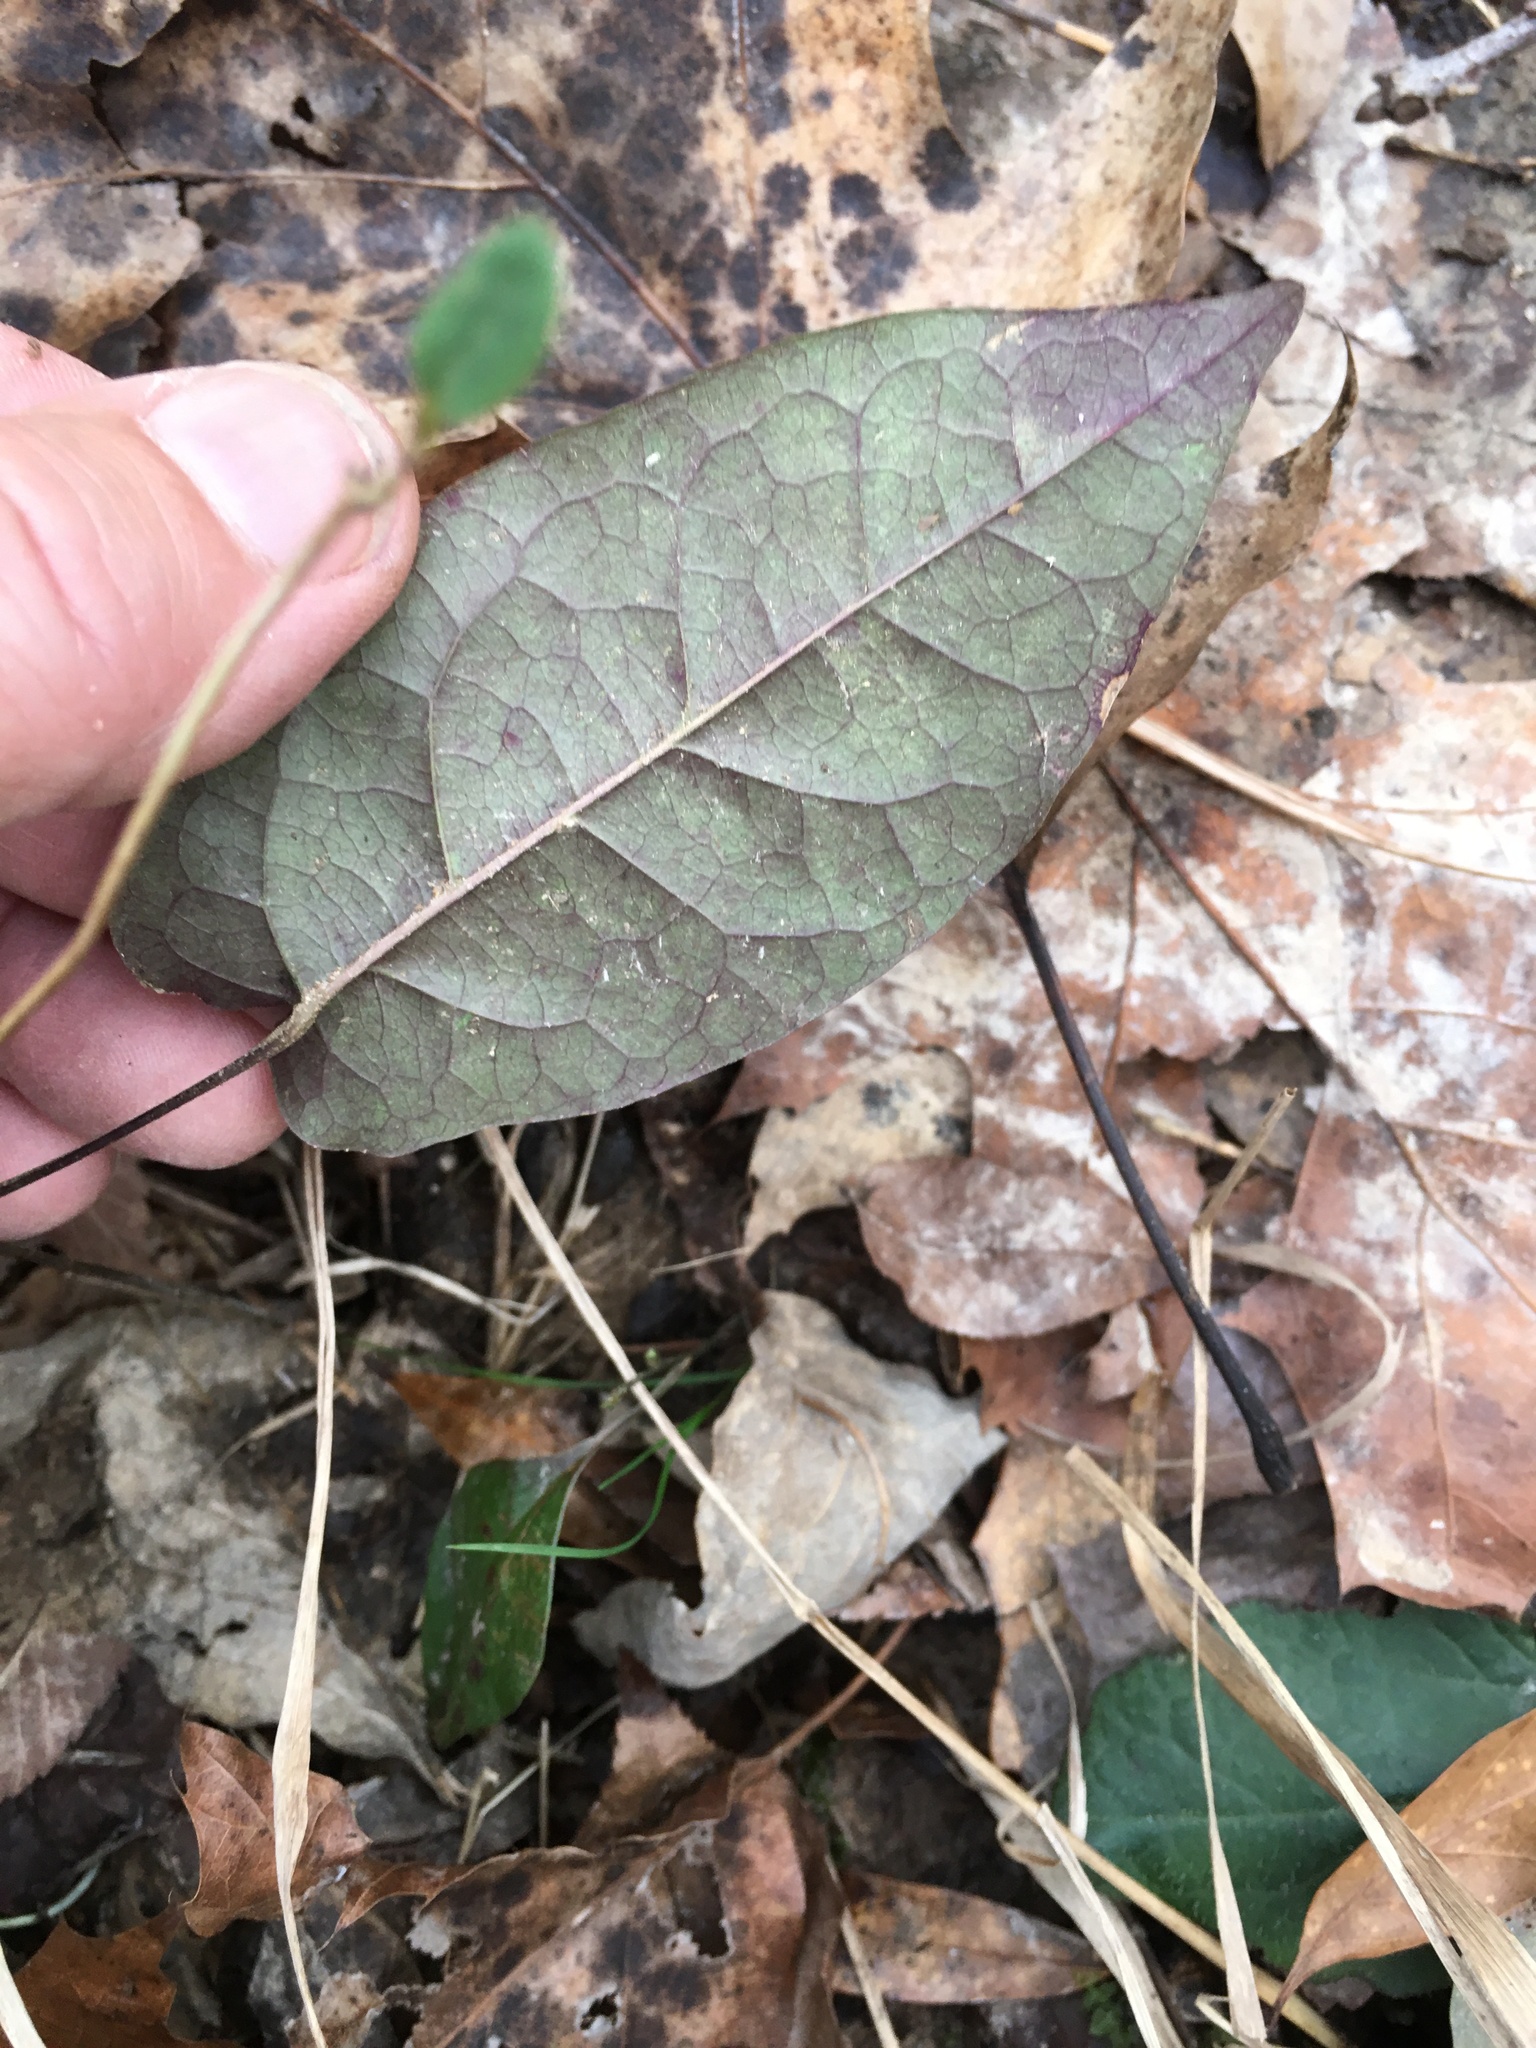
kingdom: Plantae
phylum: Tracheophyta
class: Magnoliopsida
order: Lamiales
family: Bignoniaceae
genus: Bignonia
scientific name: Bignonia capreolata
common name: Crossvine
